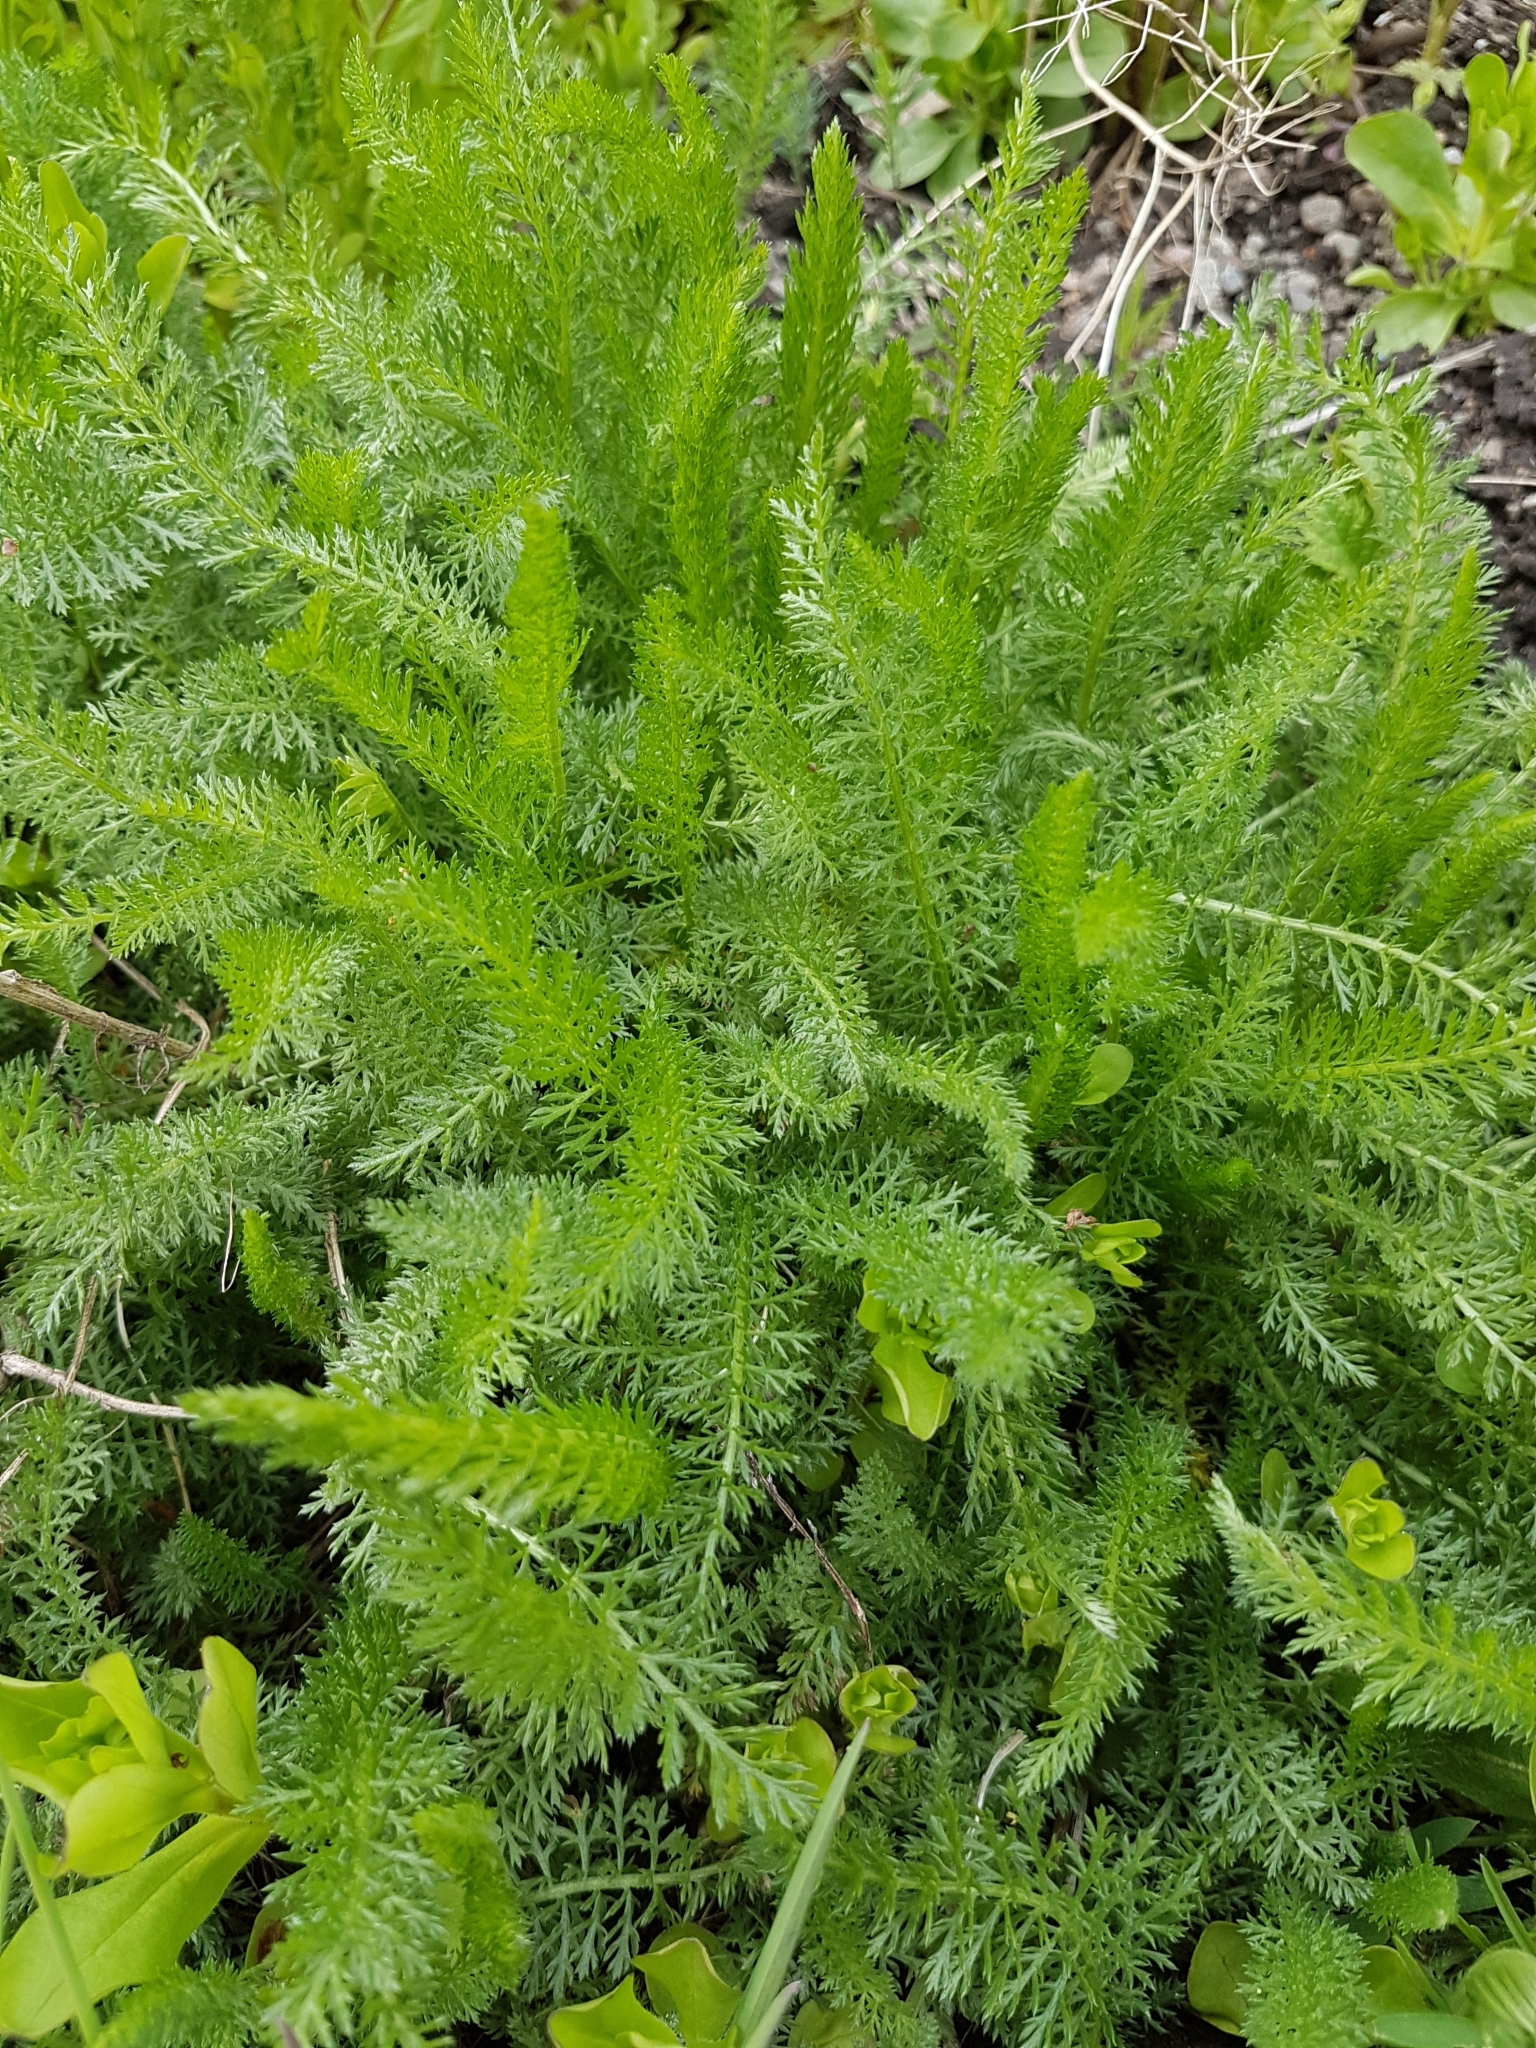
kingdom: Plantae
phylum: Tracheophyta
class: Magnoliopsida
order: Asterales
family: Asteraceae
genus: Achillea
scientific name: Achillea millefolium
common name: Yarrow
